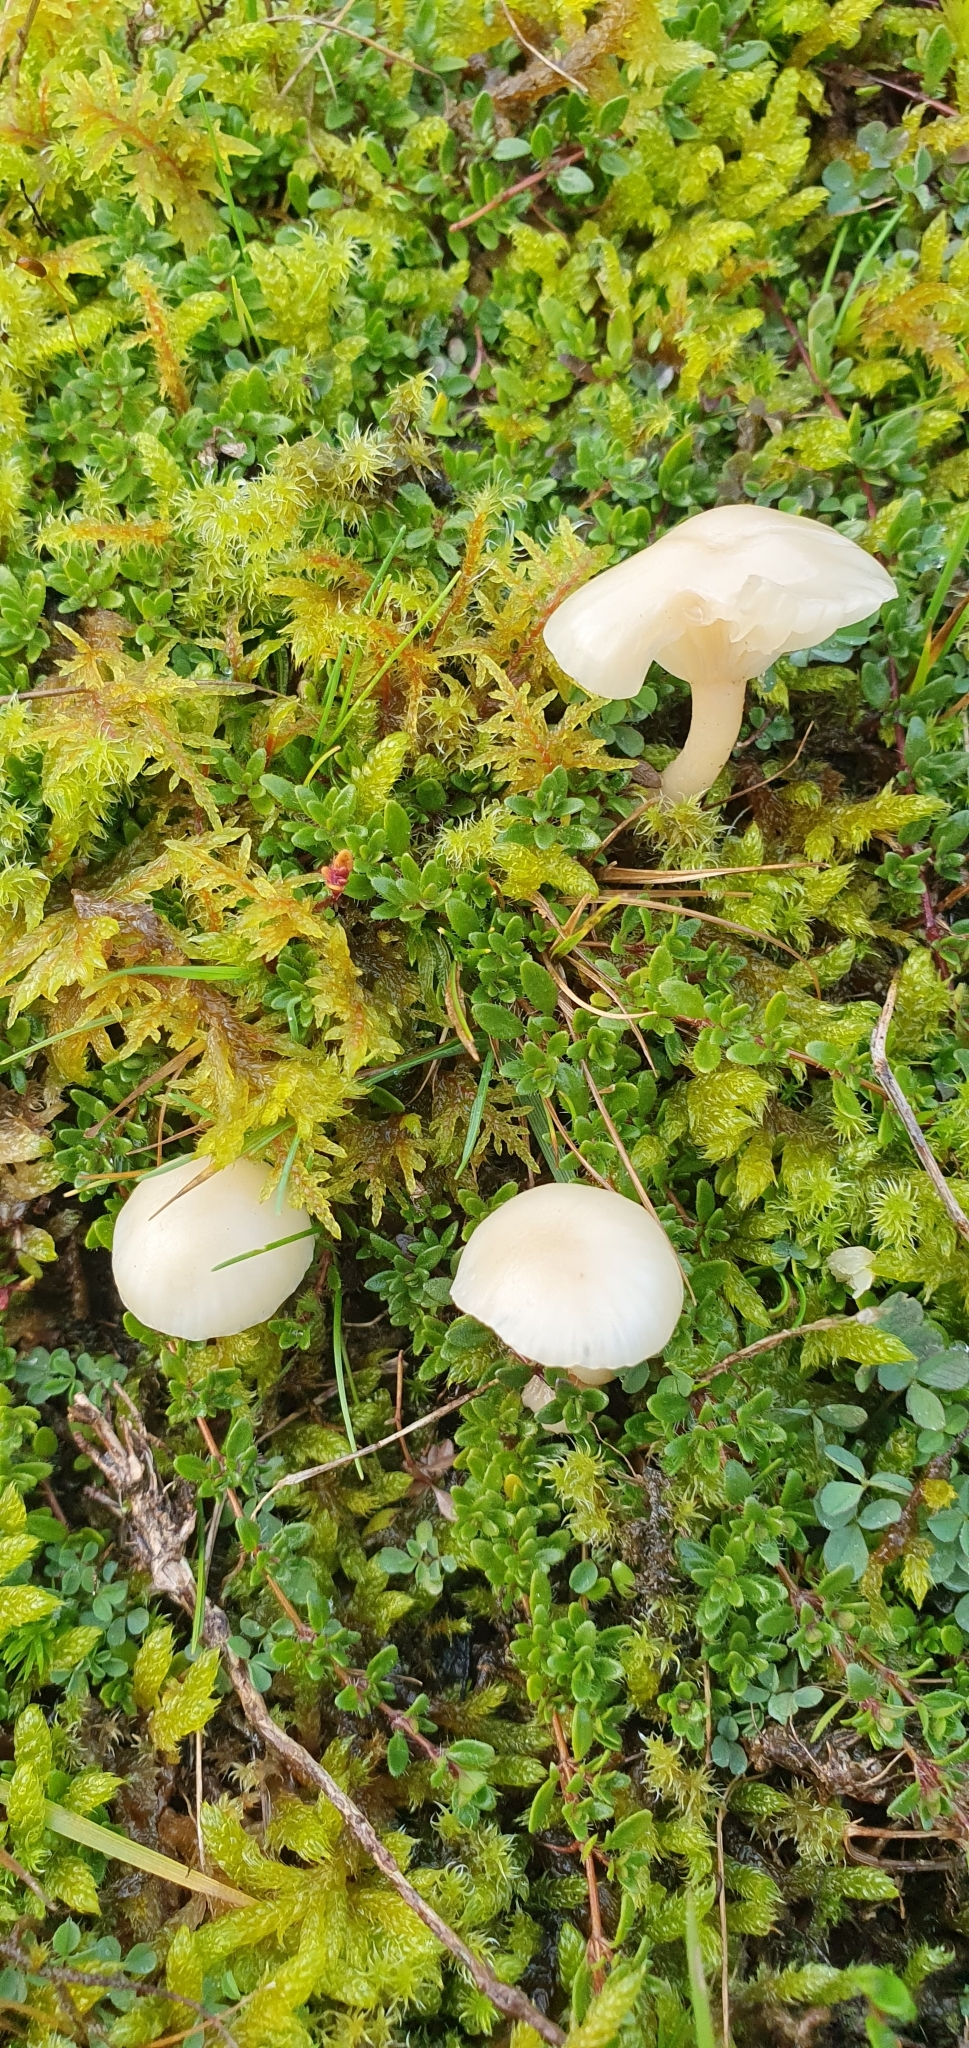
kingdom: Fungi
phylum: Basidiomycota
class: Agaricomycetes
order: Agaricales
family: Hygrophoraceae
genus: Cuphophyllus
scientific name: Cuphophyllus virgineus
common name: Snowy waxcap
